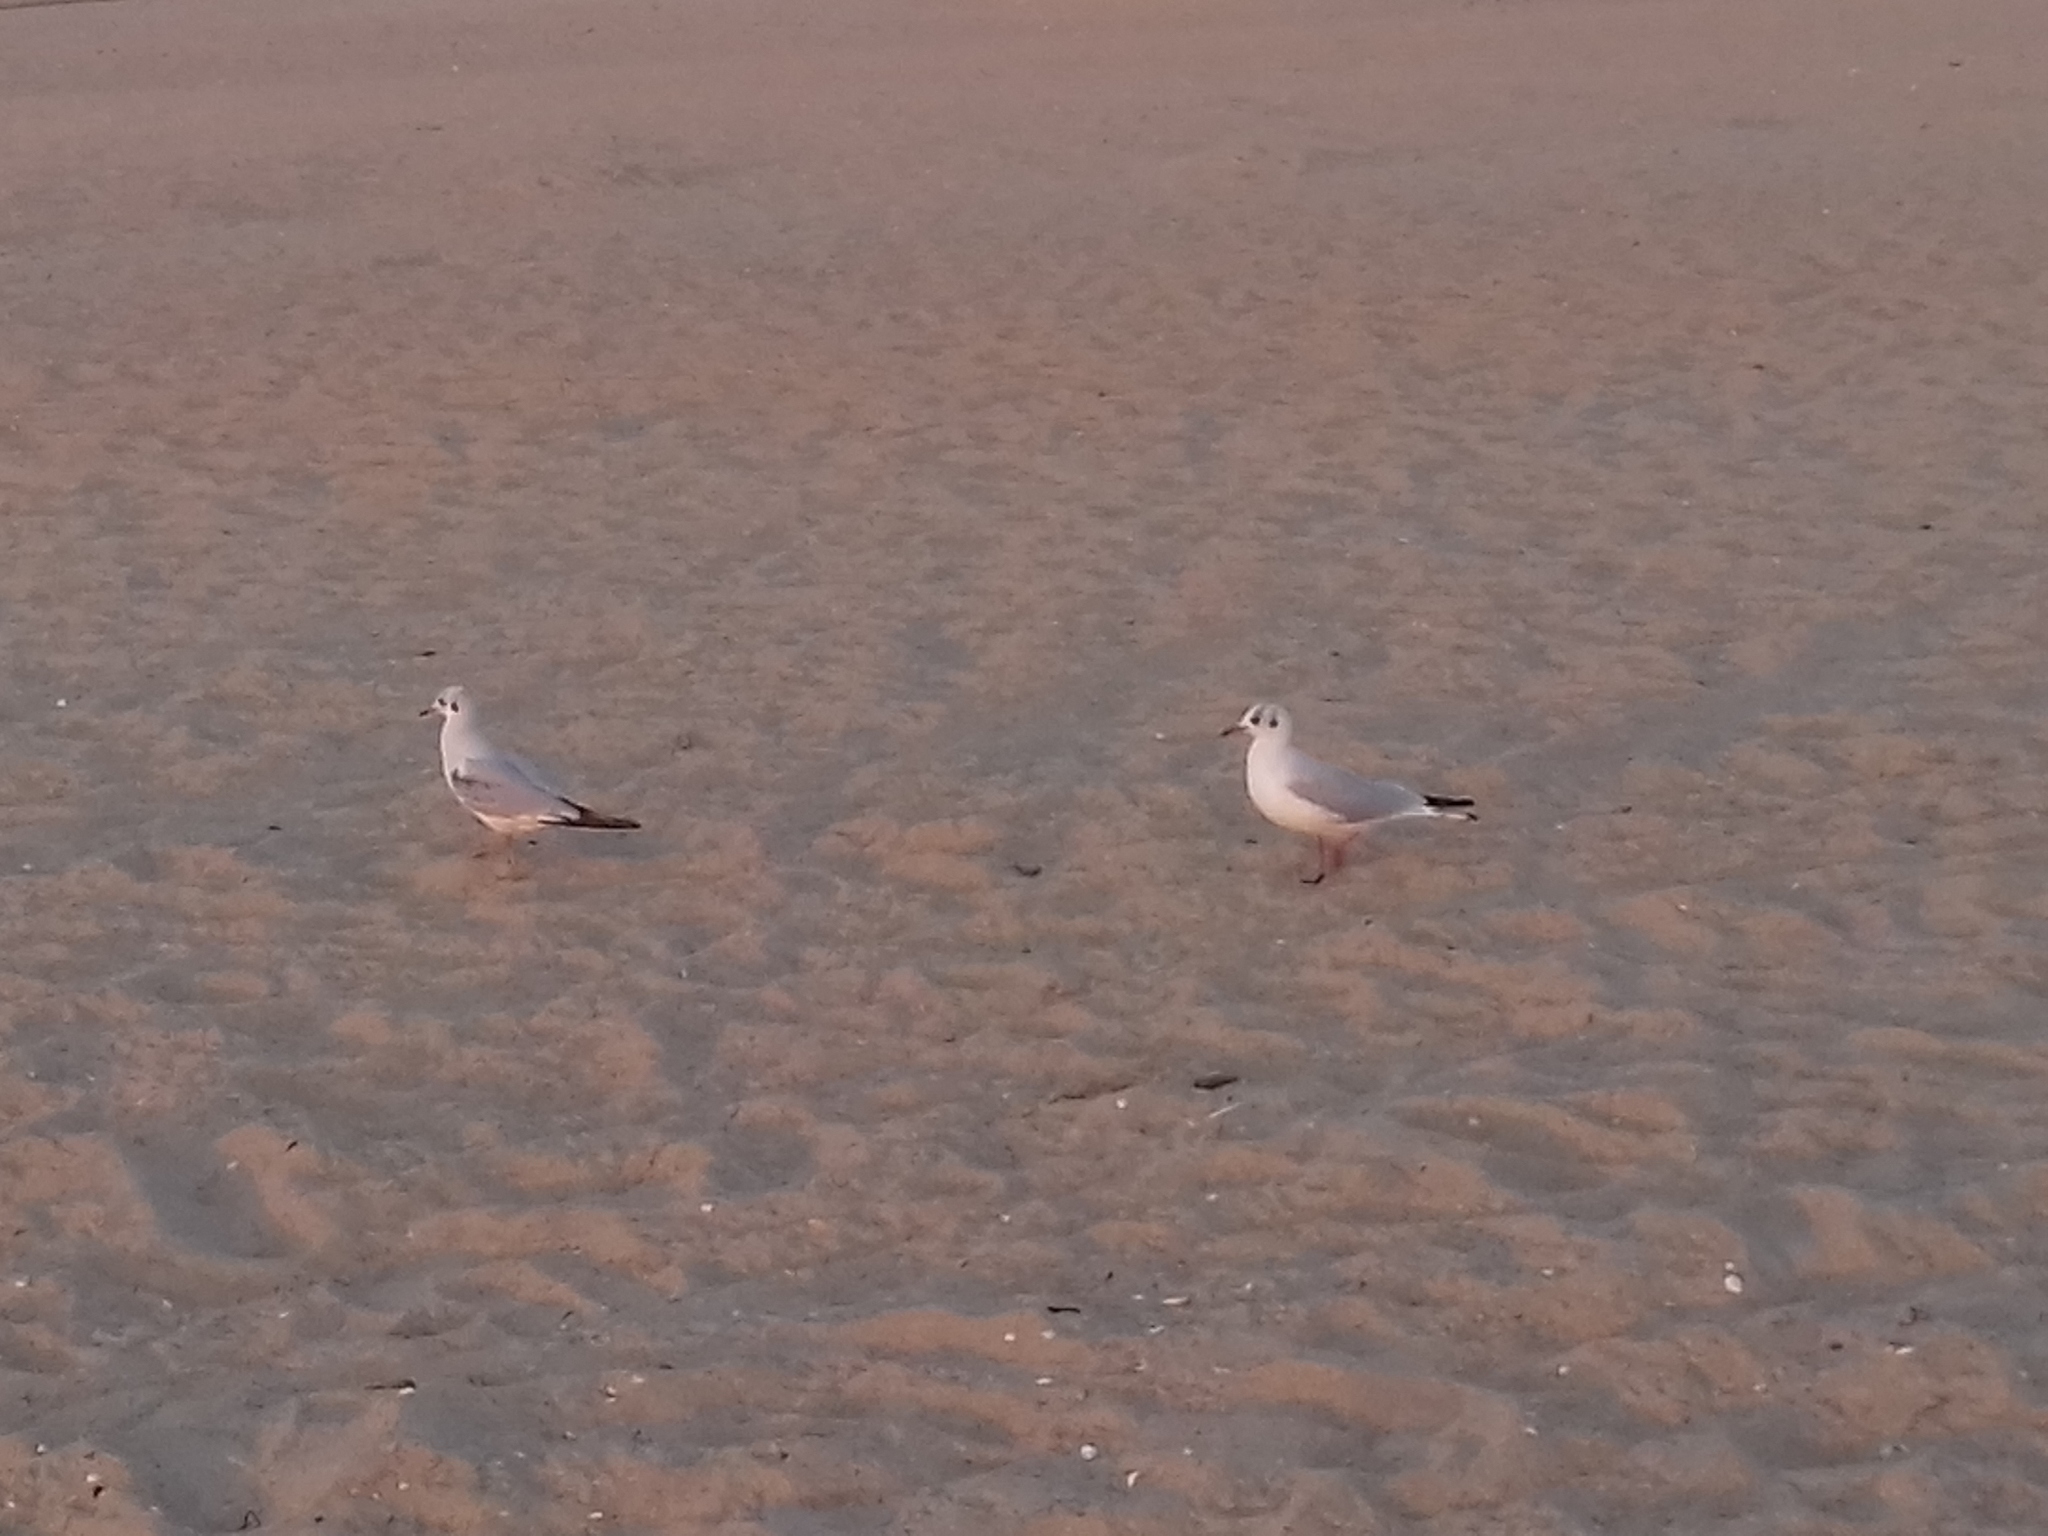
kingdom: Animalia
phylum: Chordata
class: Aves
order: Charadriiformes
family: Laridae
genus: Chroicocephalus
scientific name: Chroicocephalus ridibundus
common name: Black-headed gull
